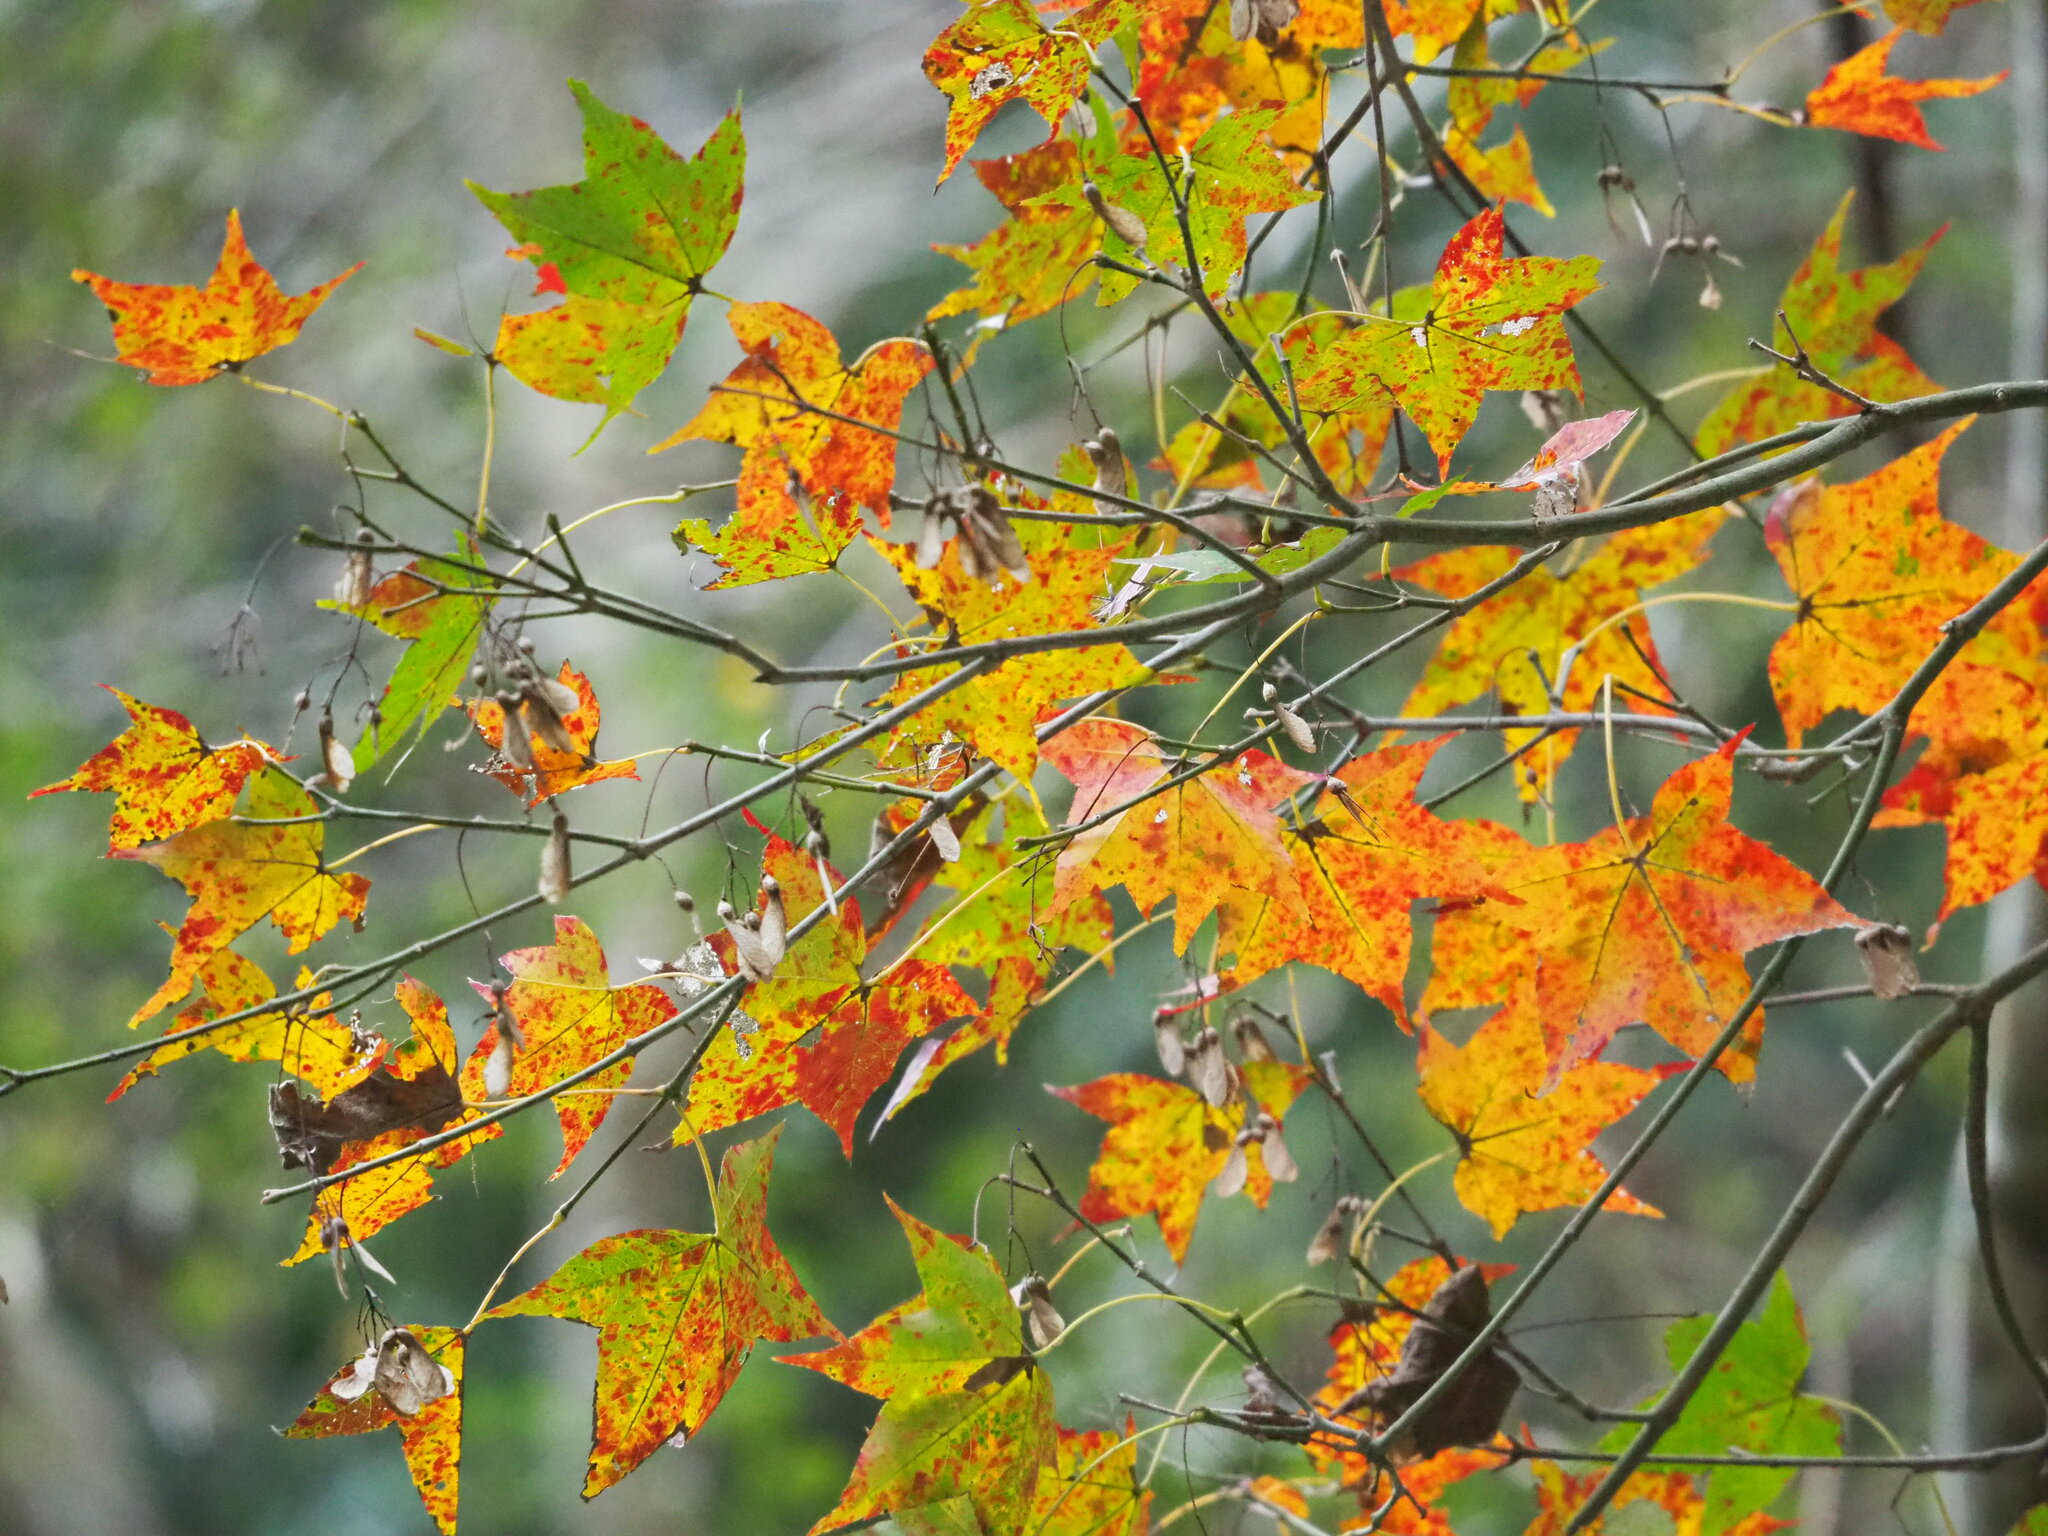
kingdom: Plantae
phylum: Tracheophyta
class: Magnoliopsida
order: Sapindales
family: Sapindaceae
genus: Acer
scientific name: Acer serrulatum
